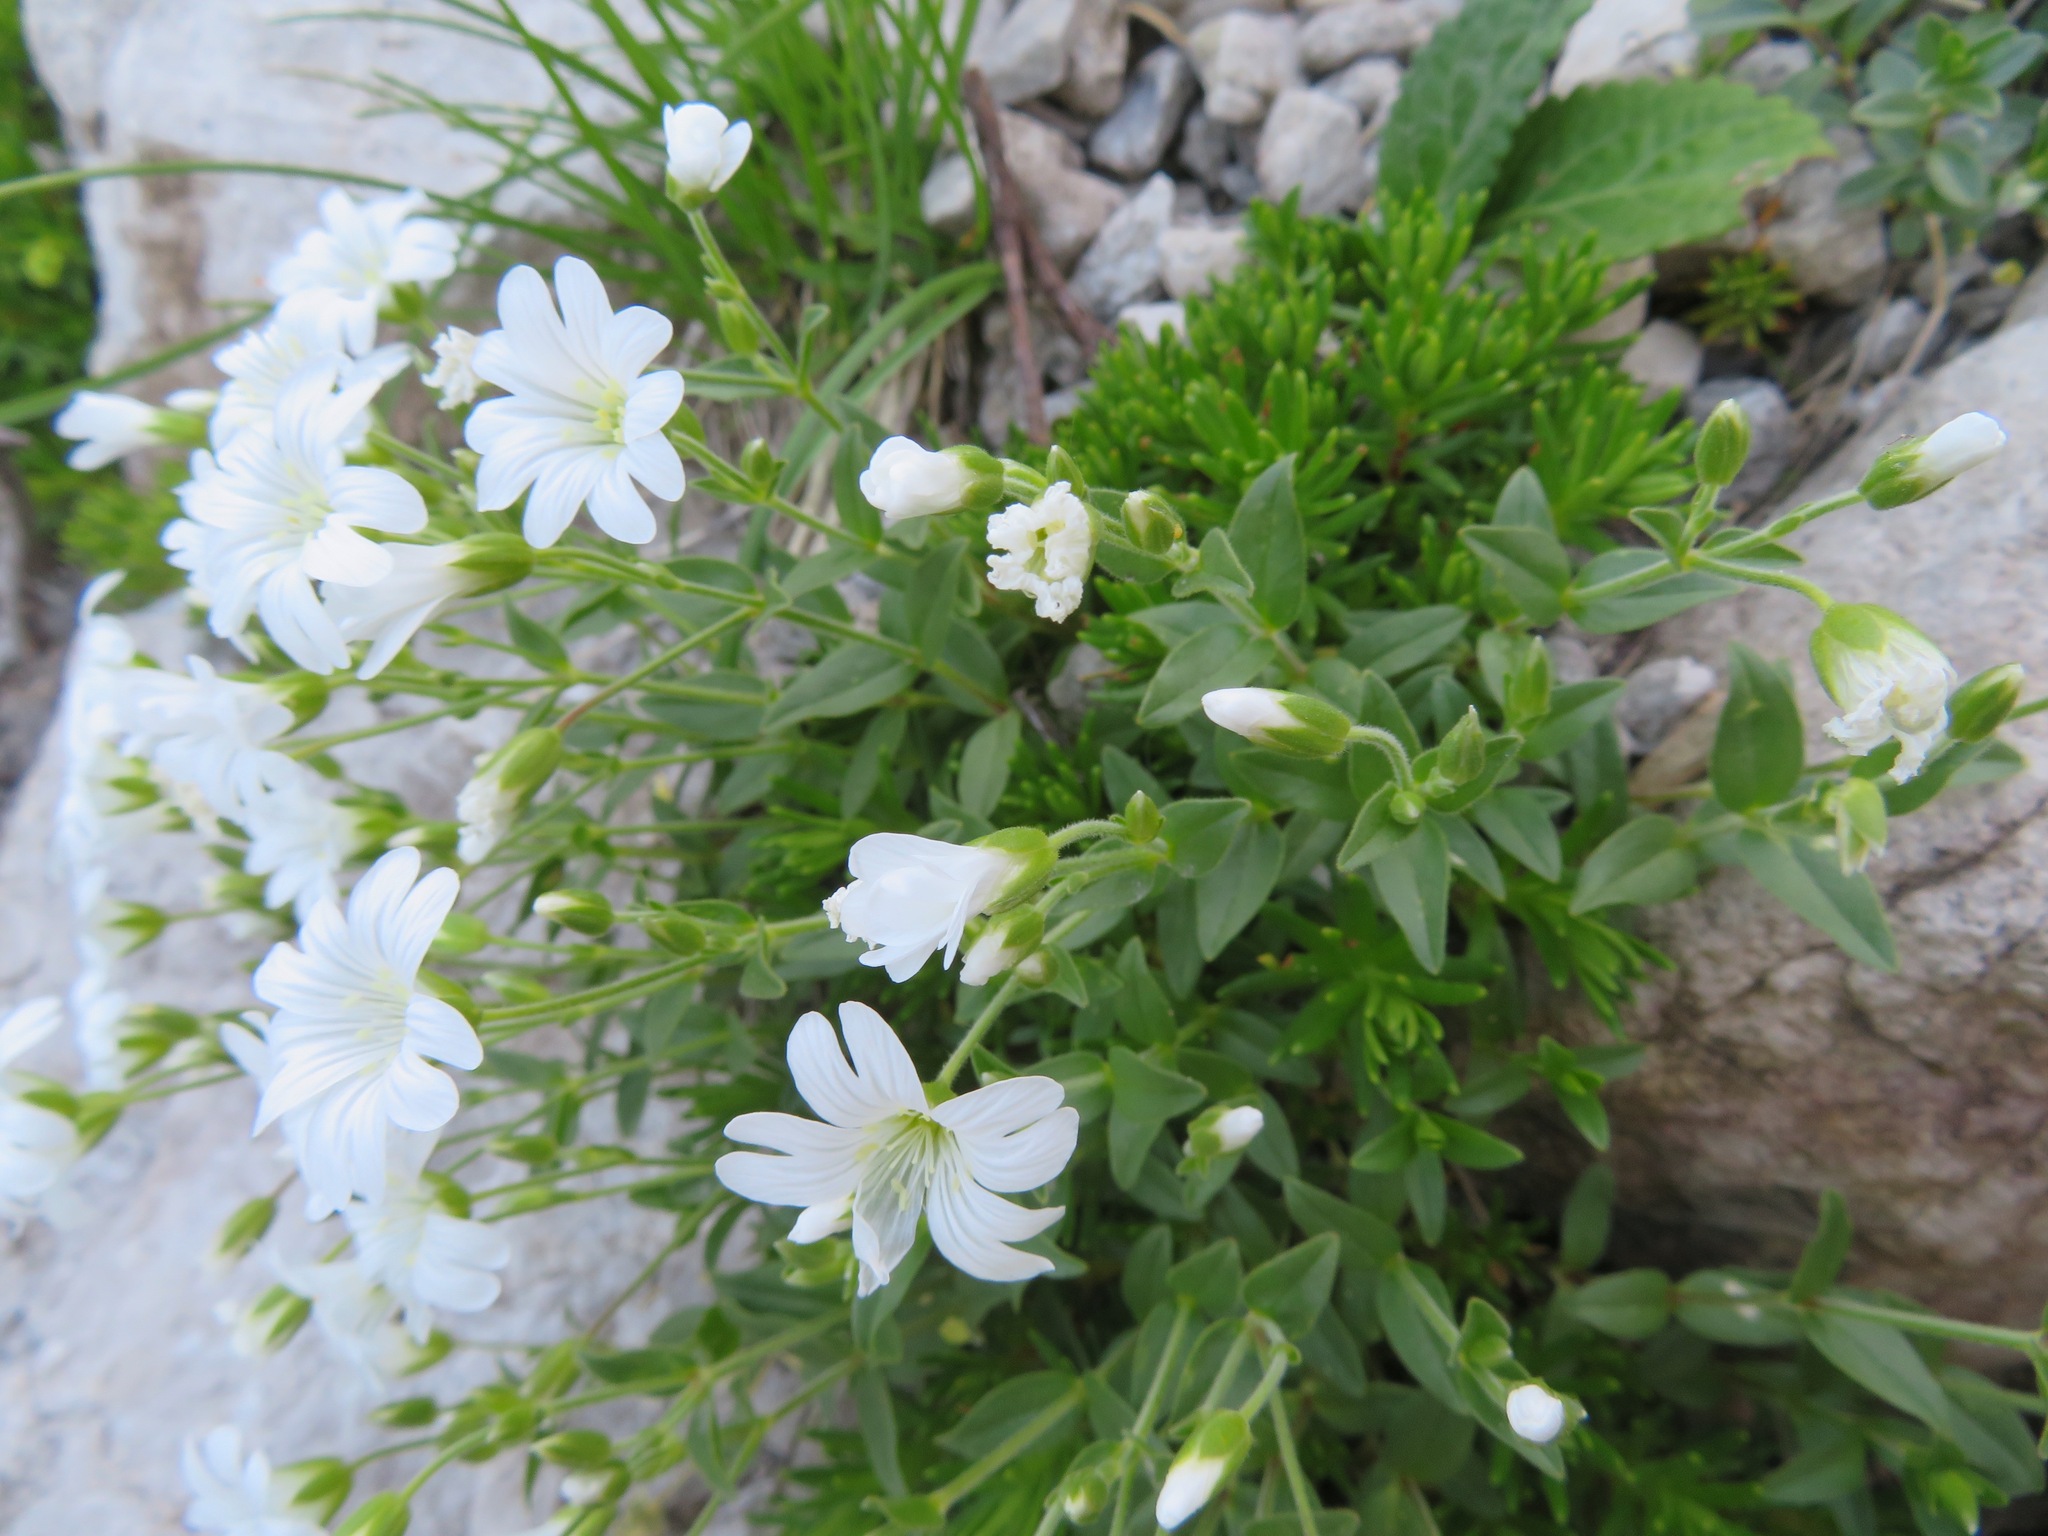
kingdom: Plantae
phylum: Tracheophyta
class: Magnoliopsida
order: Caryophyllales
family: Caryophyllaceae
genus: Cerastium
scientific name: Cerastium latifolium
